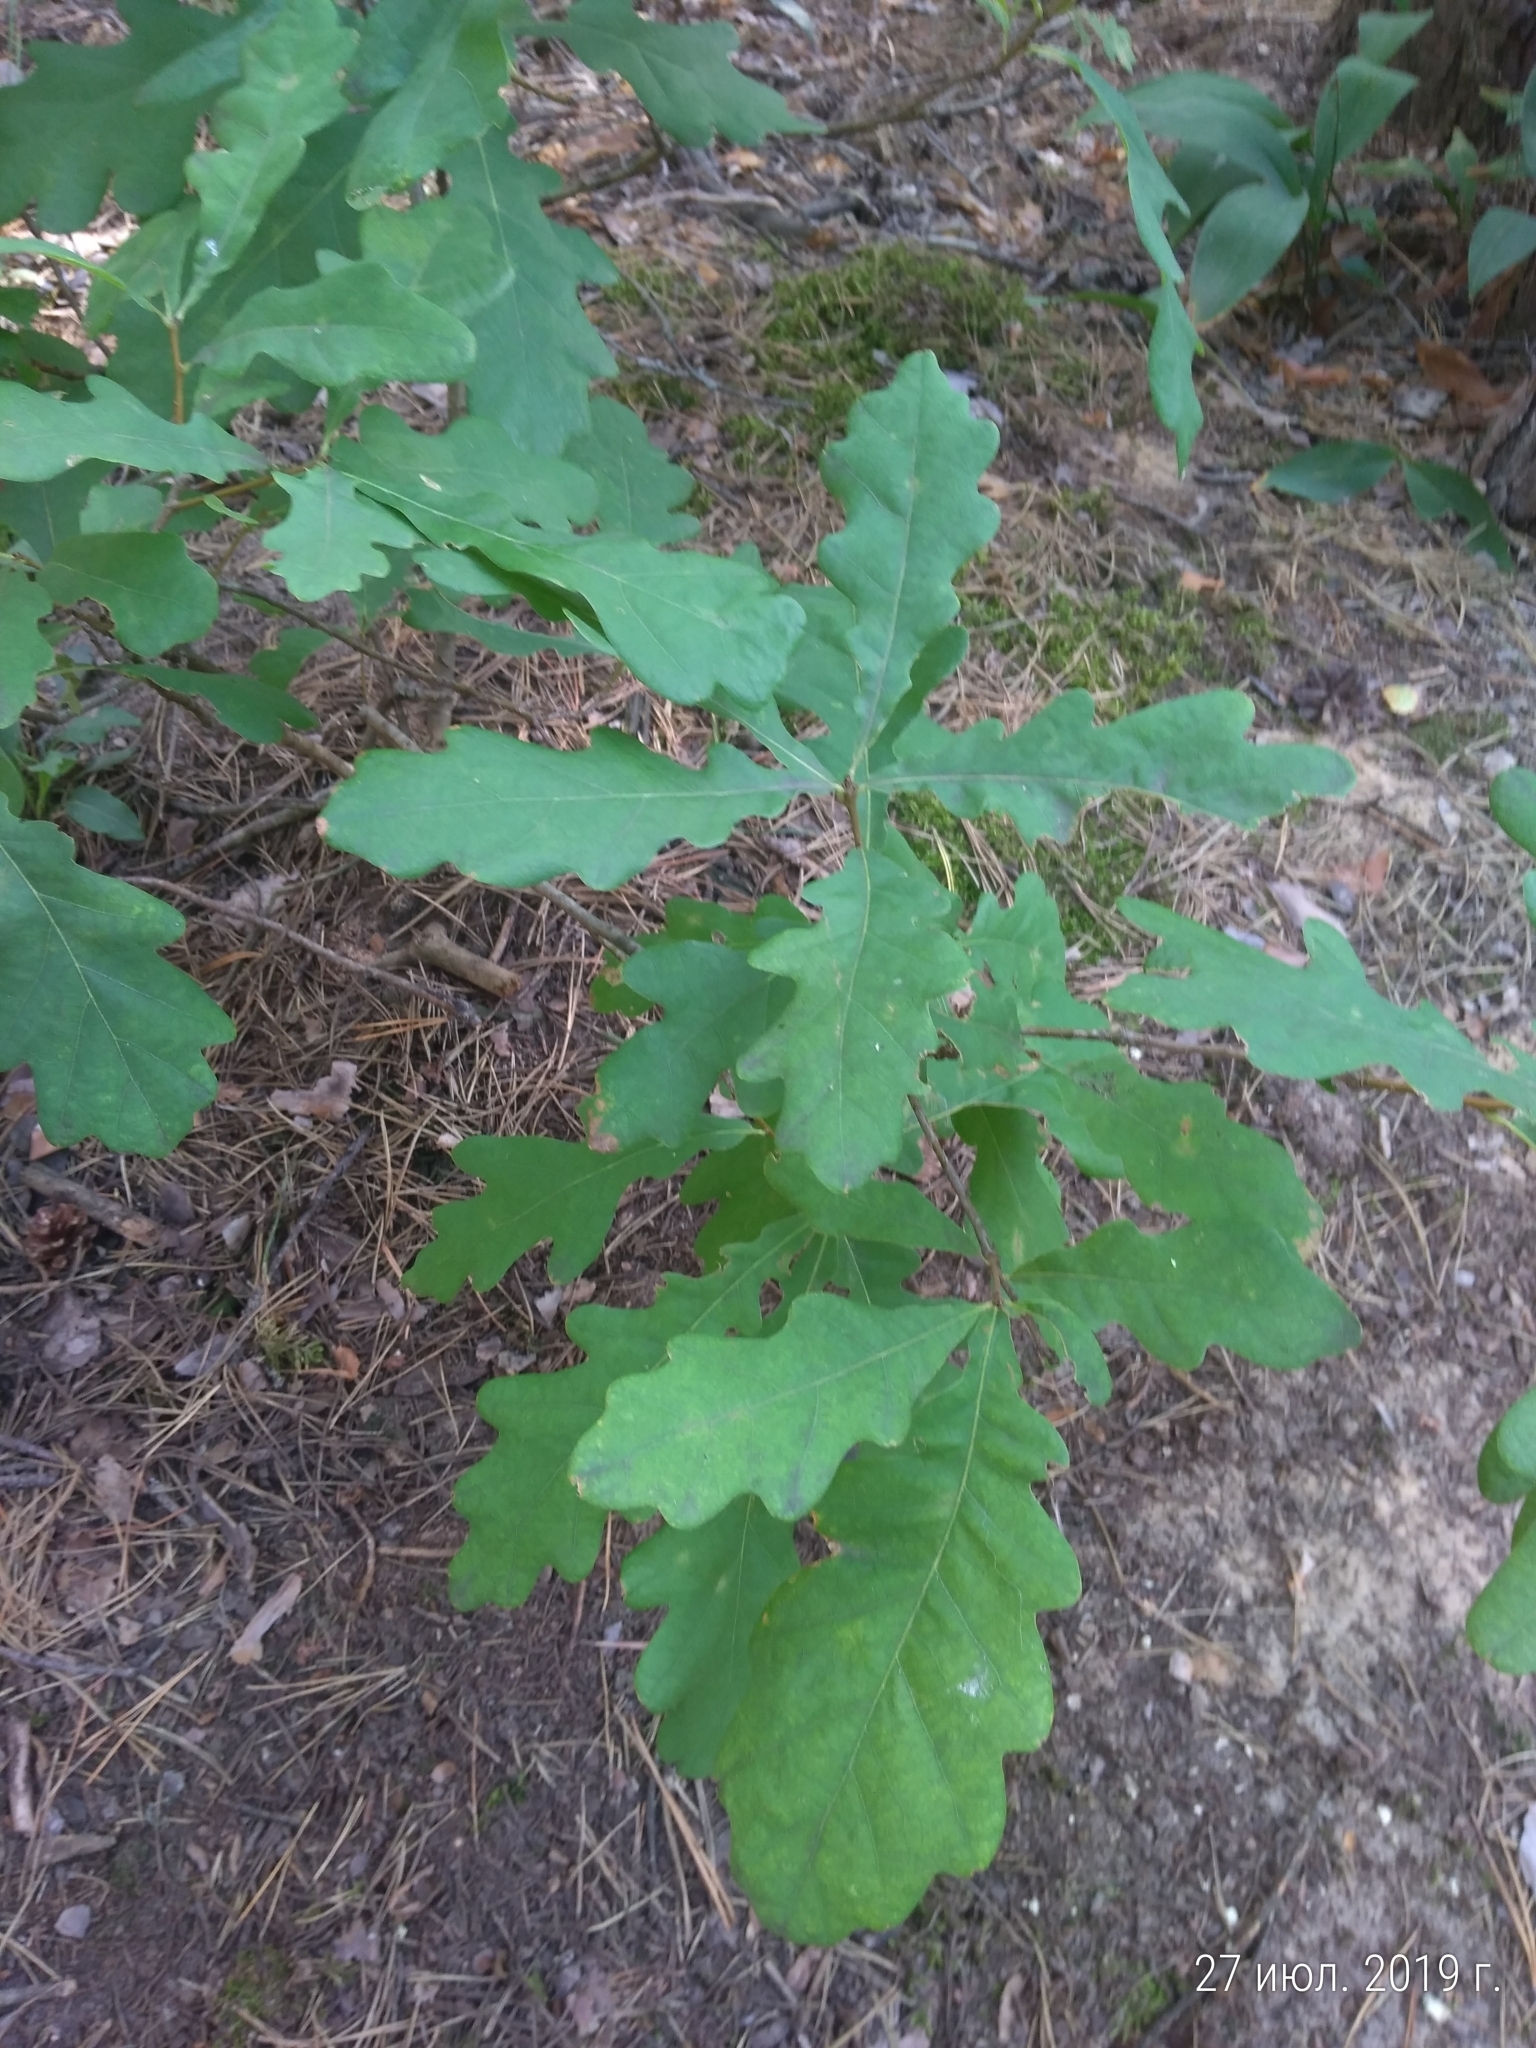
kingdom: Plantae
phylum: Tracheophyta
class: Magnoliopsida
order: Fagales
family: Fagaceae
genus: Quercus
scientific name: Quercus robur
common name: Pedunculate oak
